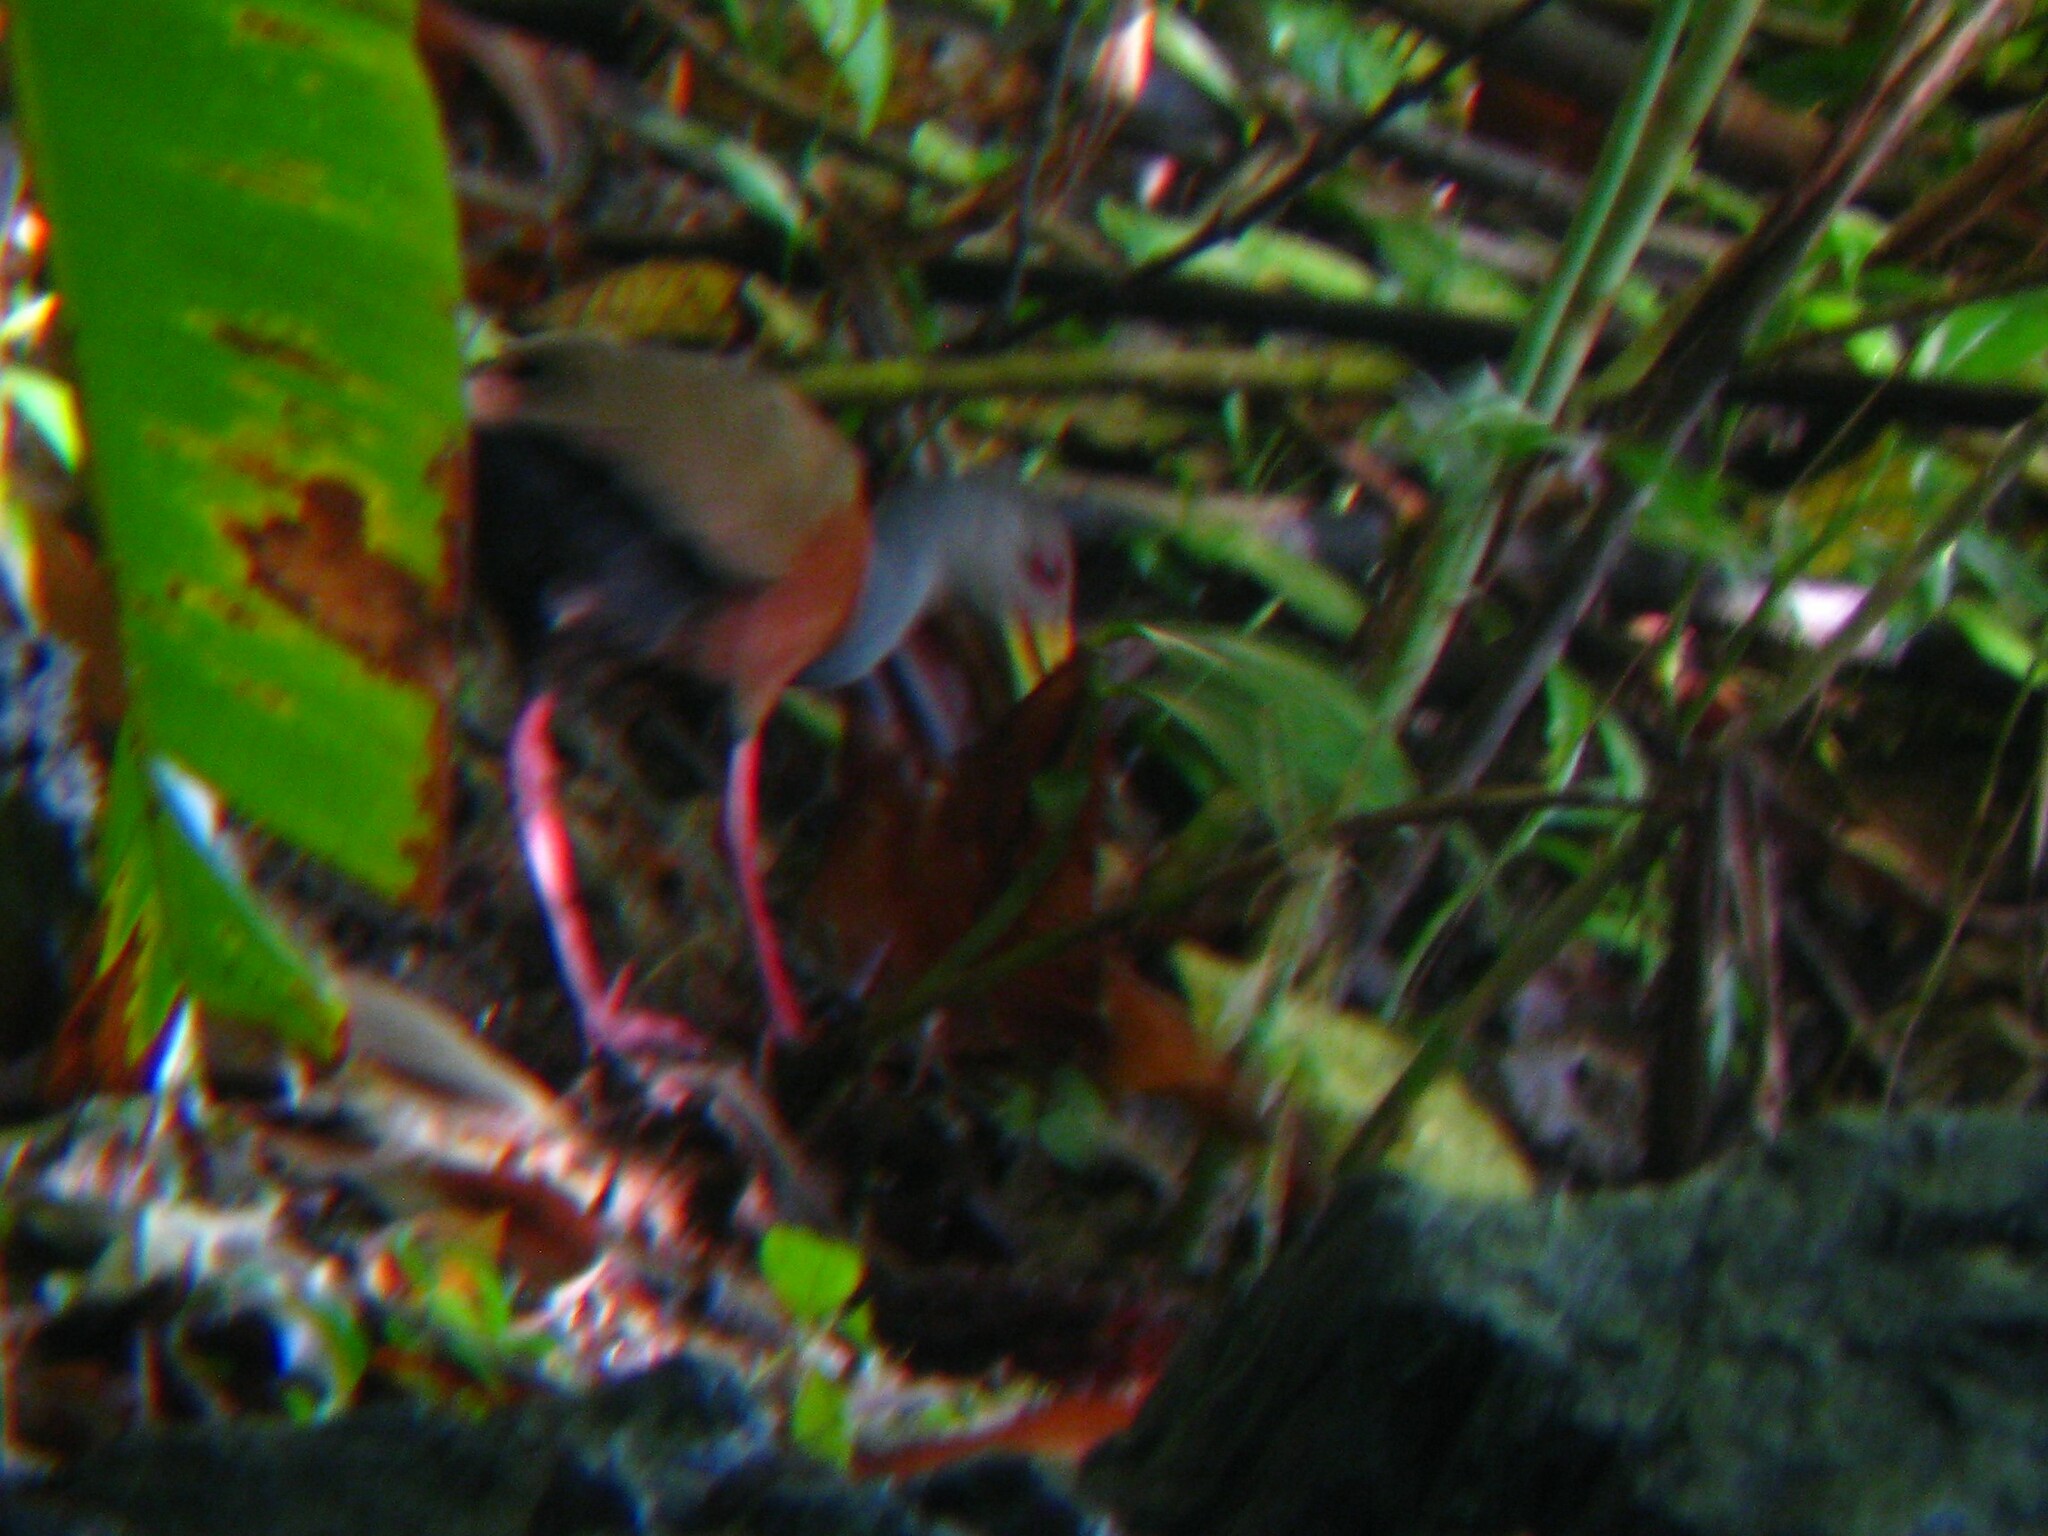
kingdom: Animalia
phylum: Chordata
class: Aves
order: Gruiformes
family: Rallidae
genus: Aramides
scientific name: Aramides cajanea
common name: Gray-necked wood-rail
